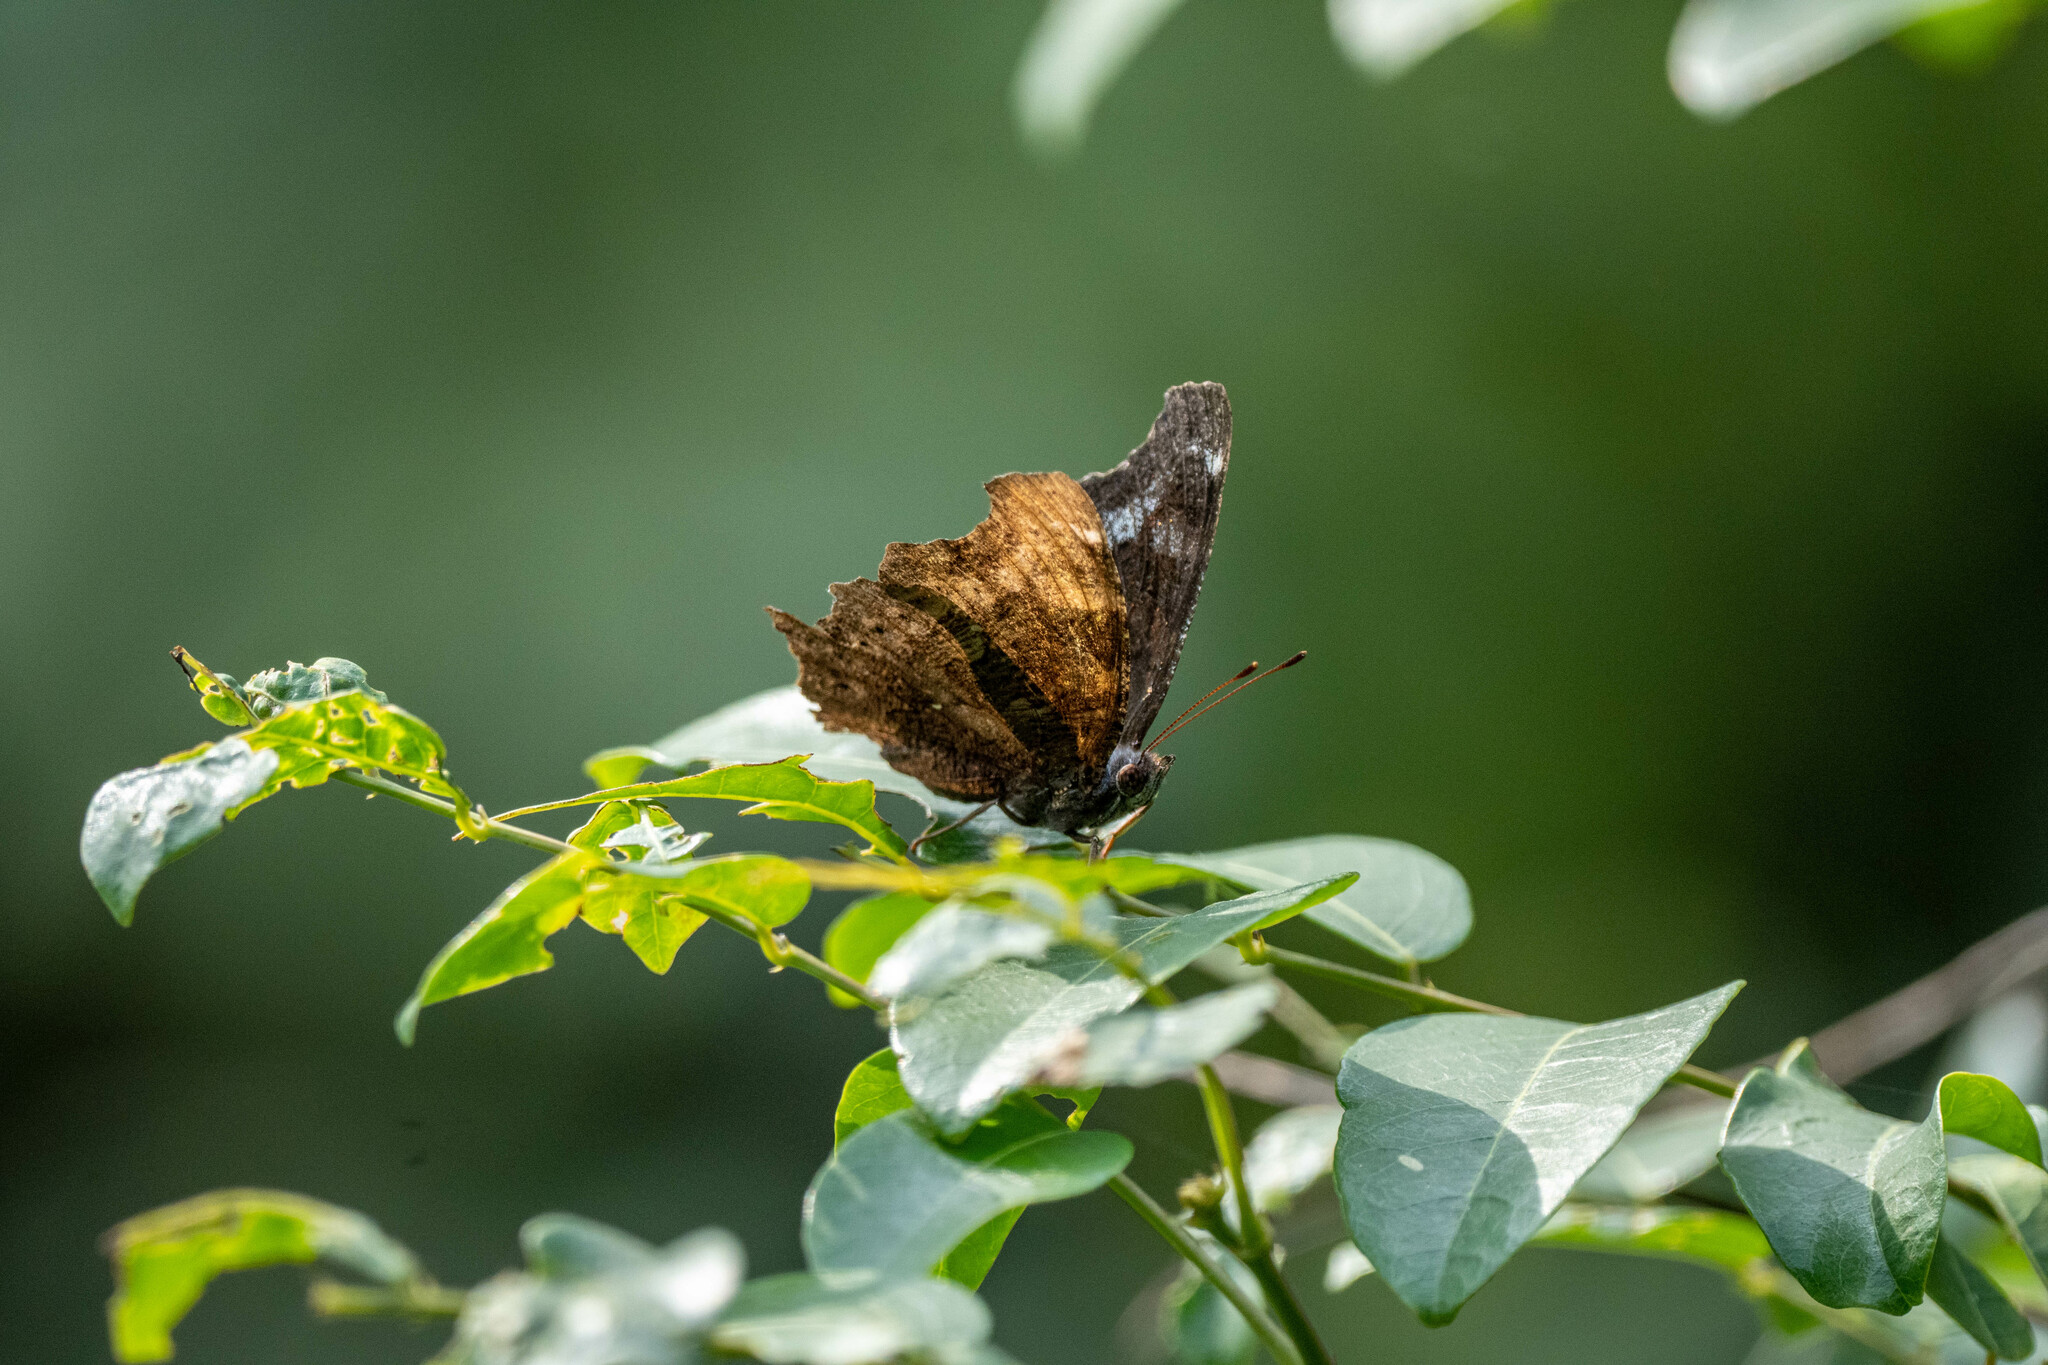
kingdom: Animalia
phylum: Arthropoda
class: Insecta
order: Lepidoptera
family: Nymphalidae
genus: Vanessa
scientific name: Vanessa Kaniska canace
